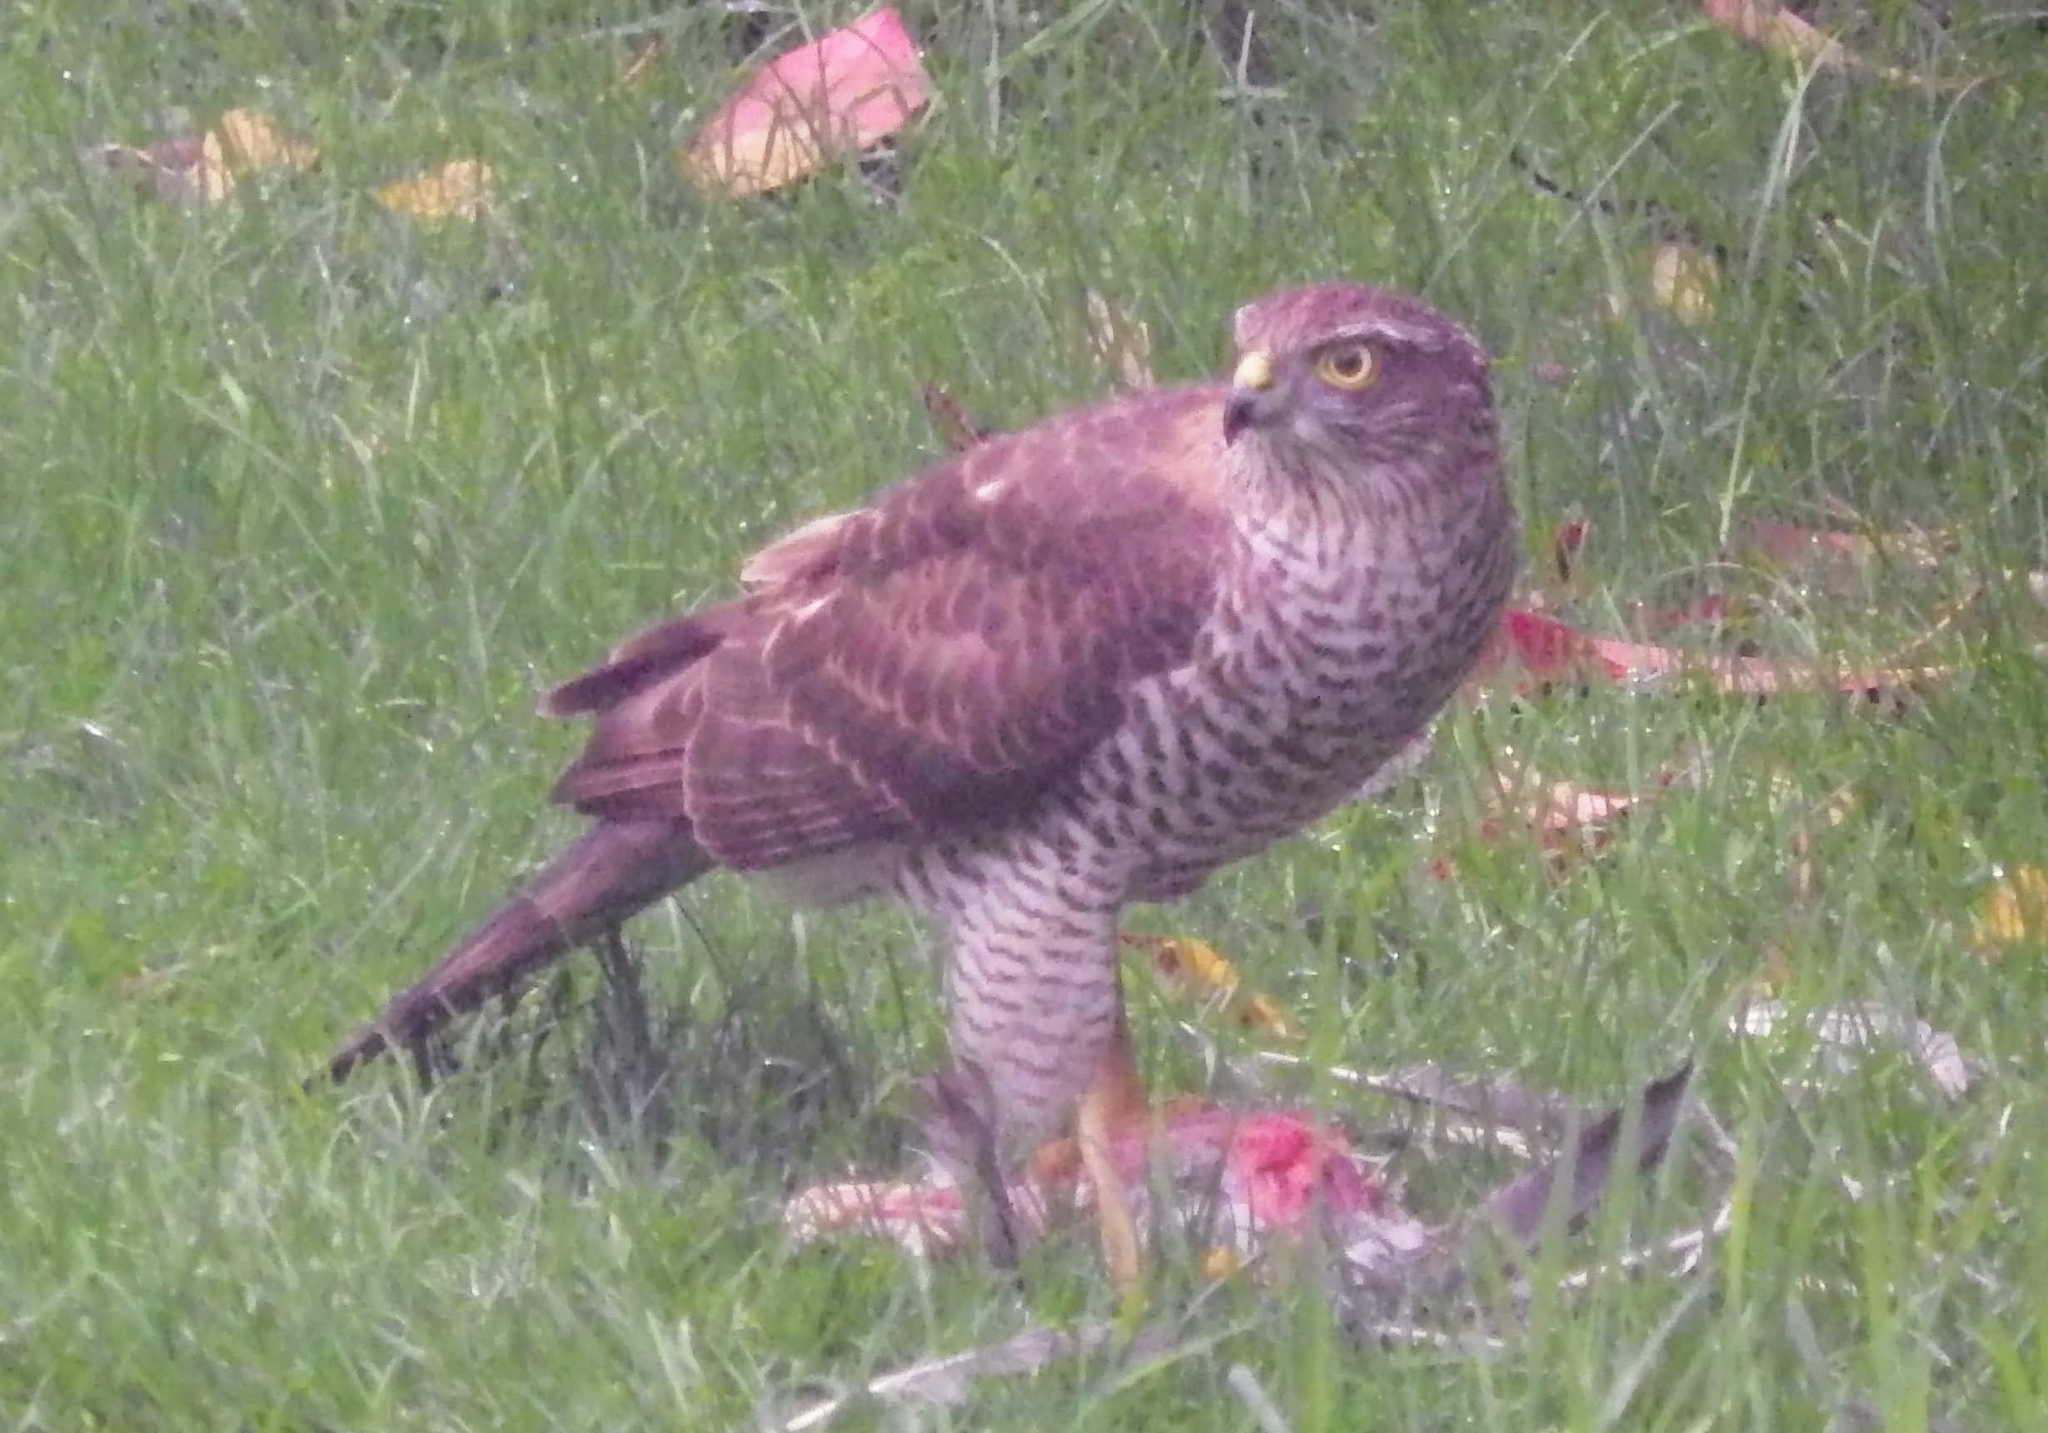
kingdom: Animalia
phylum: Chordata
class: Aves
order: Accipitriformes
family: Accipitridae
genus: Accipiter
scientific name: Accipiter nisus
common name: Eurasian sparrowhawk
